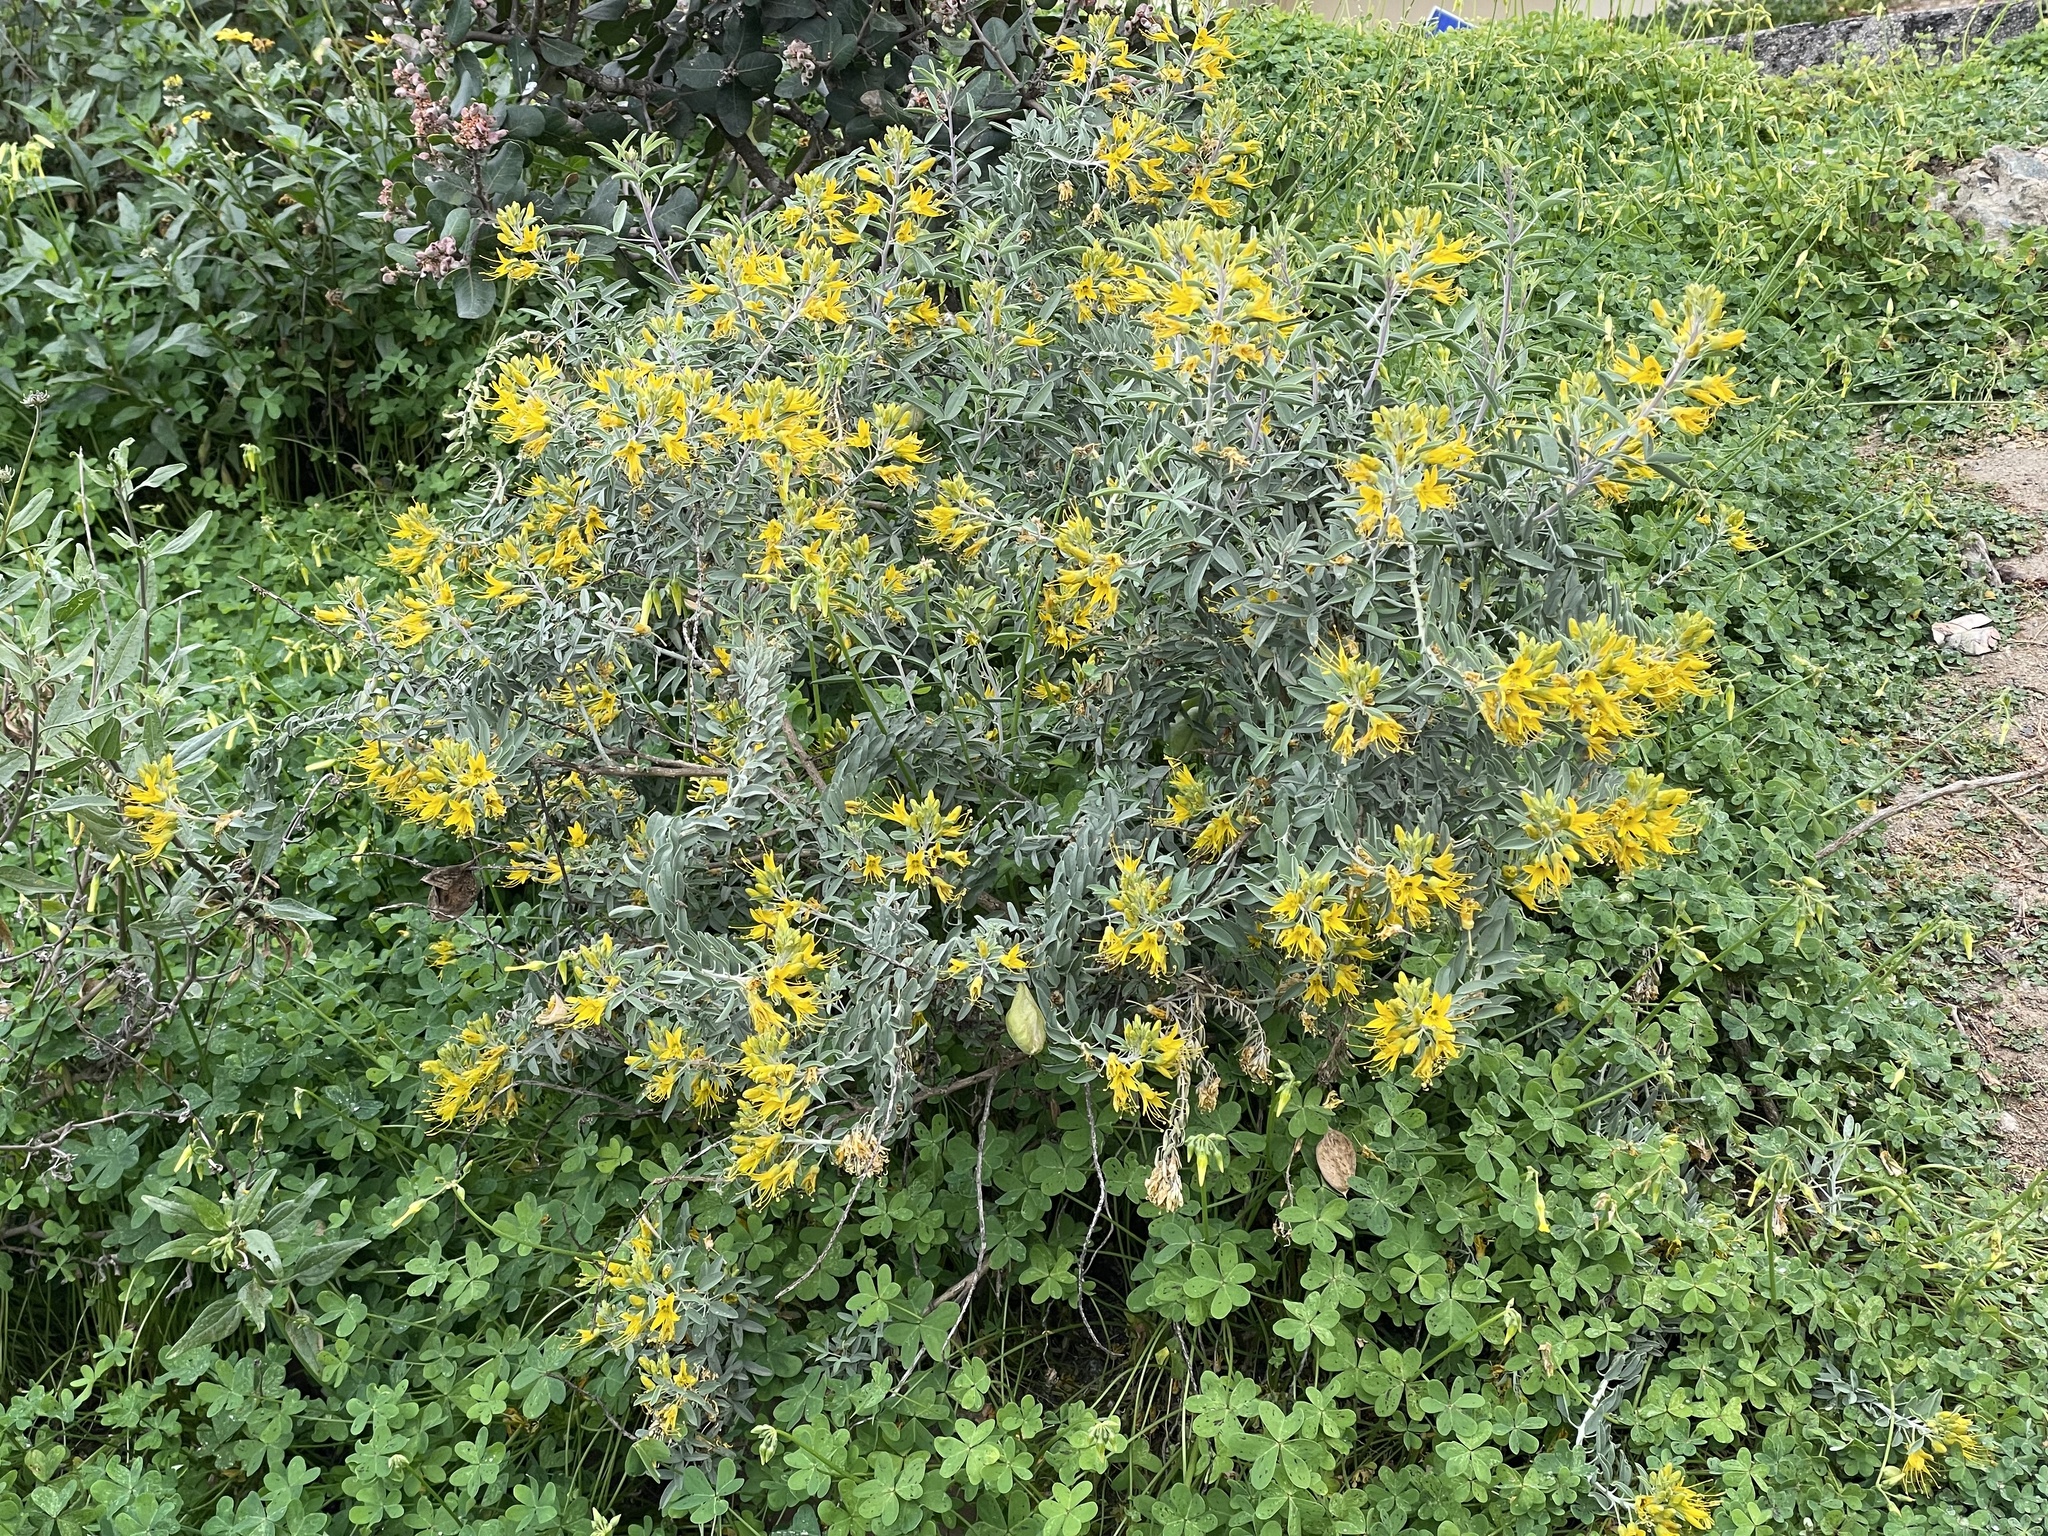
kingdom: Plantae
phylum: Tracheophyta
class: Magnoliopsida
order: Brassicales
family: Cleomaceae
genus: Cleomella
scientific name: Cleomella arborea
